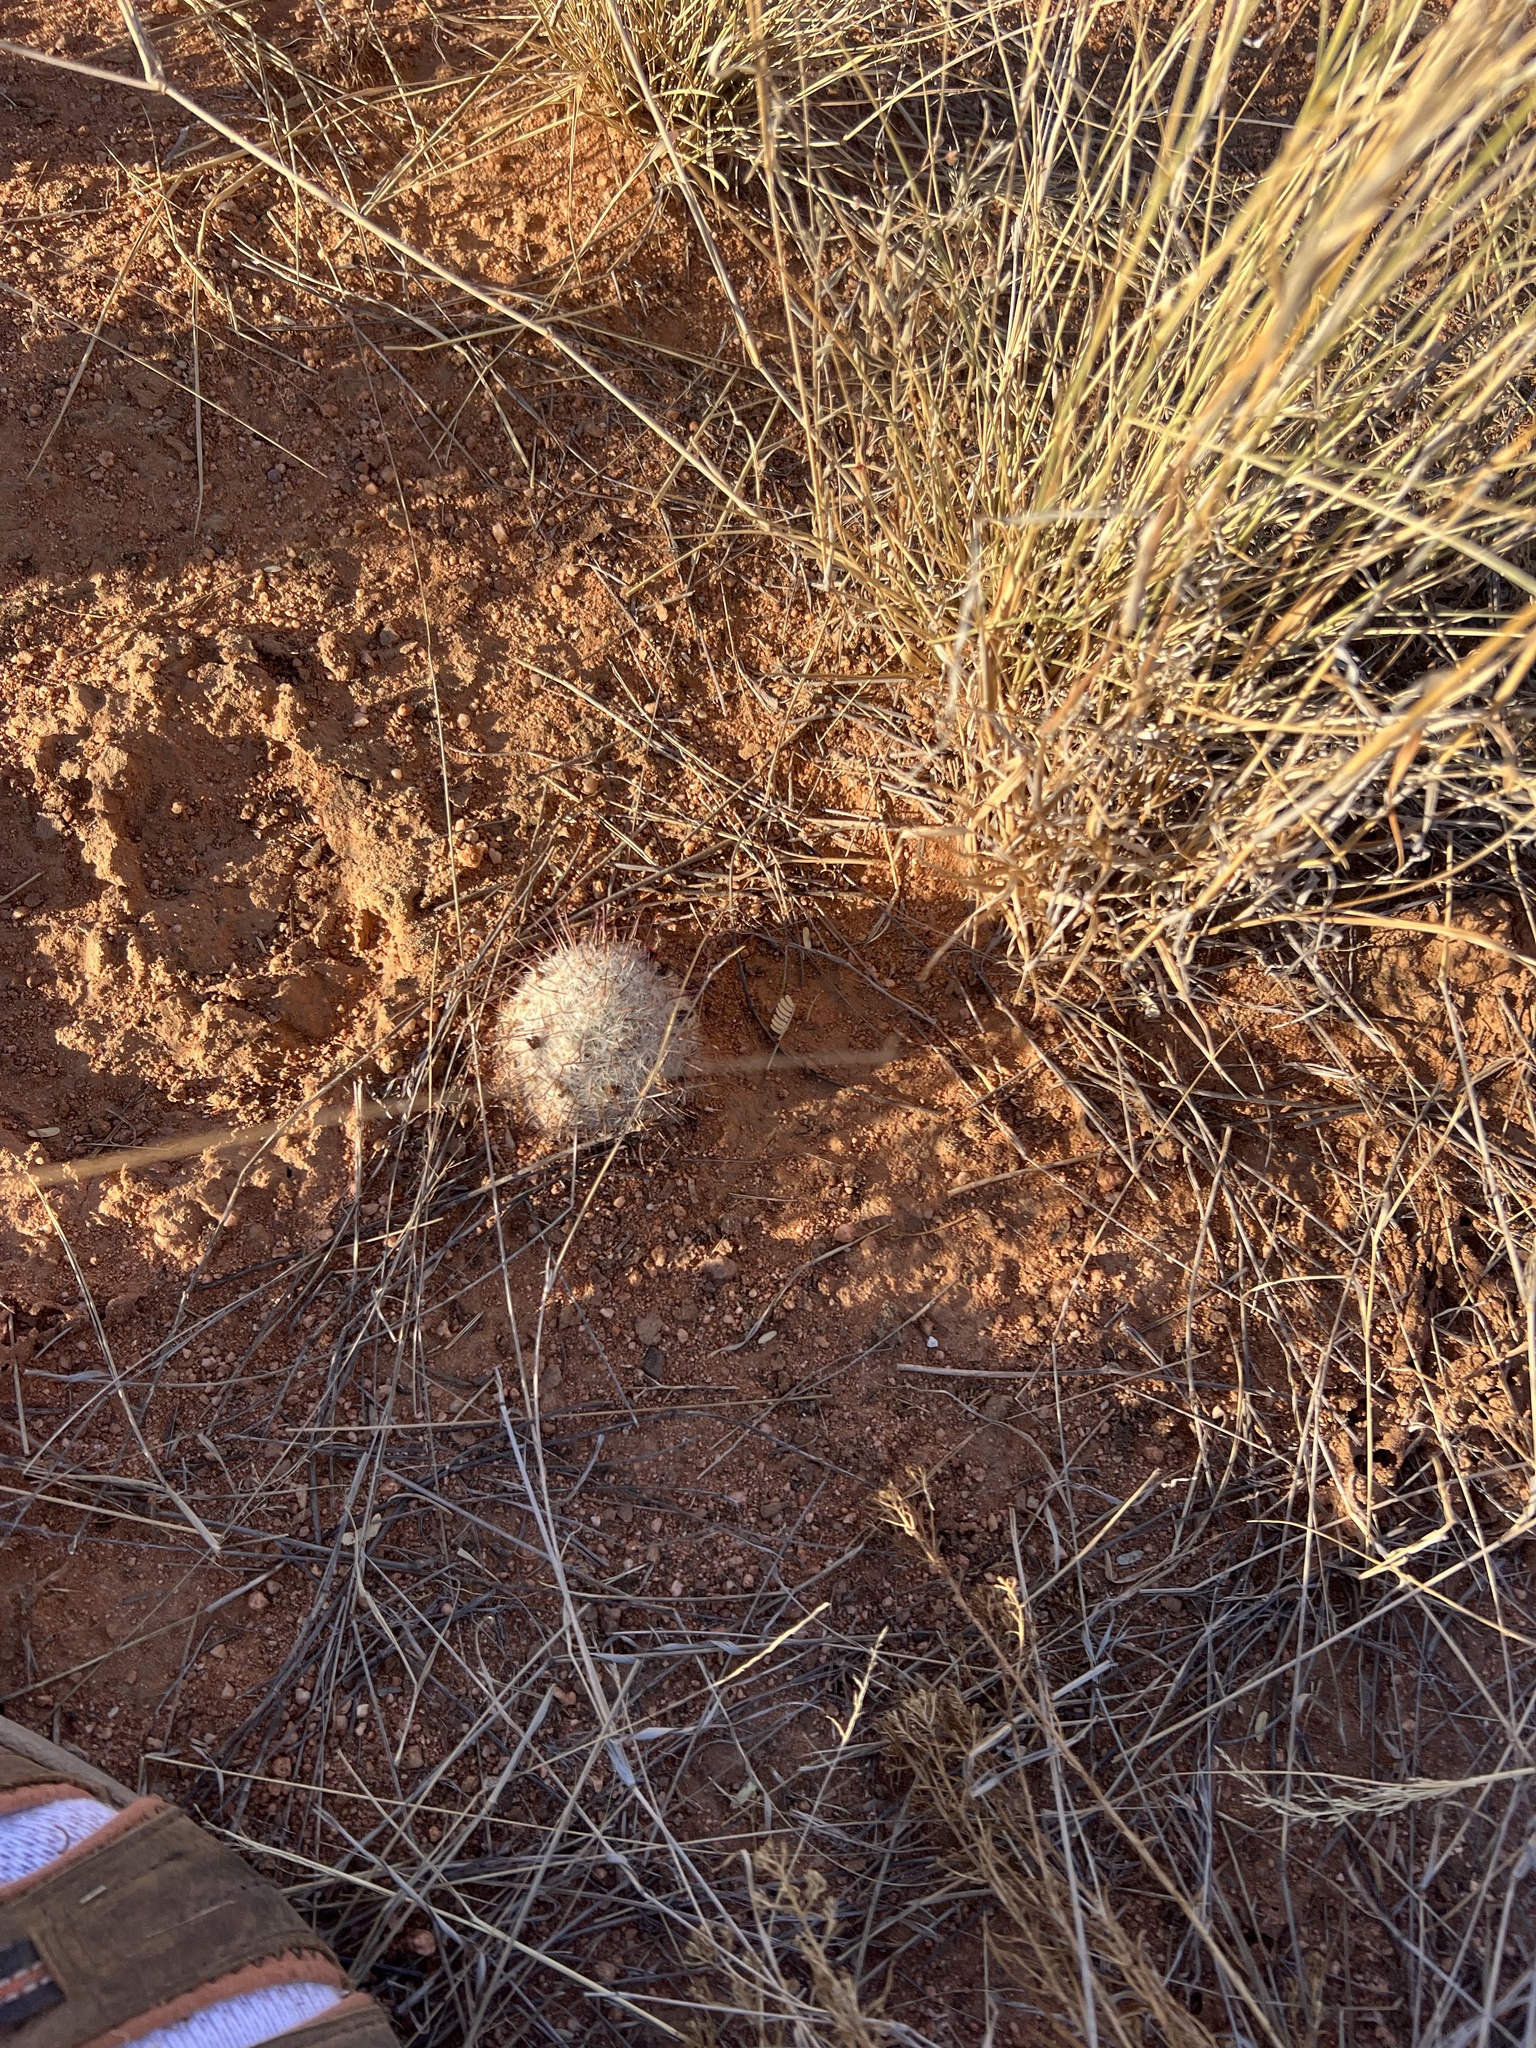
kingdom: Plantae
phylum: Tracheophyta
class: Magnoliopsida
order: Caryophyllales
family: Cactaceae
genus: Cochemiea
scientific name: Cochemiea grahamii
